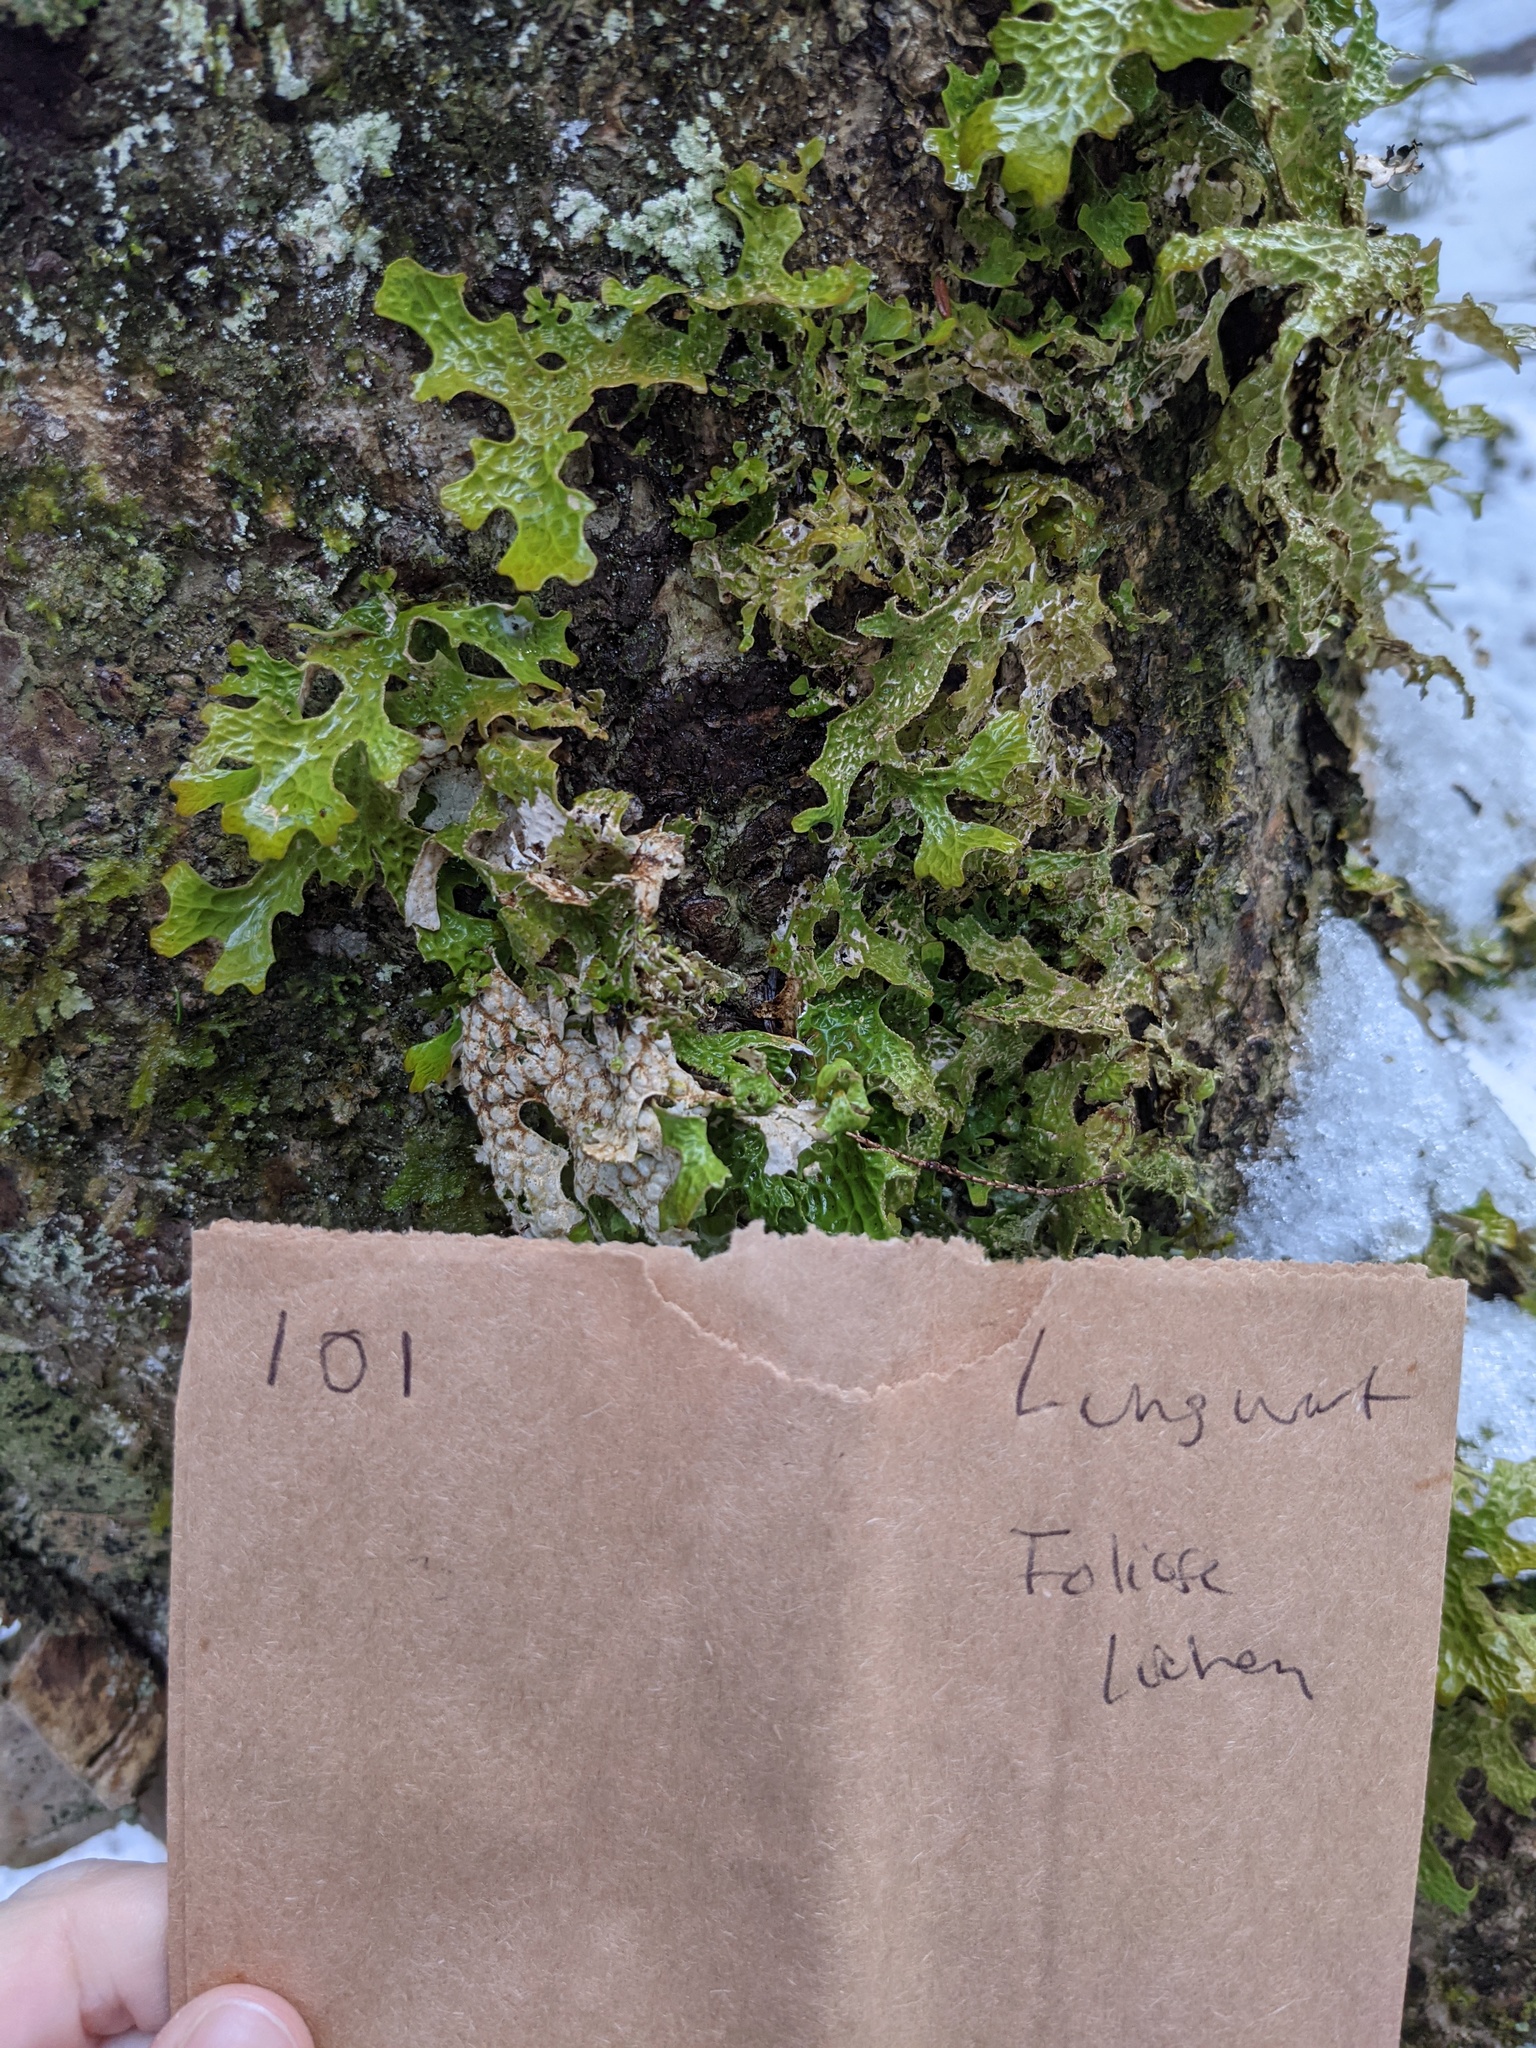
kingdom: Fungi
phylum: Ascomycota
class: Lecanoromycetes
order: Peltigerales
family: Lobariaceae
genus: Lobaria
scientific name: Lobaria pulmonaria
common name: Lungwort
